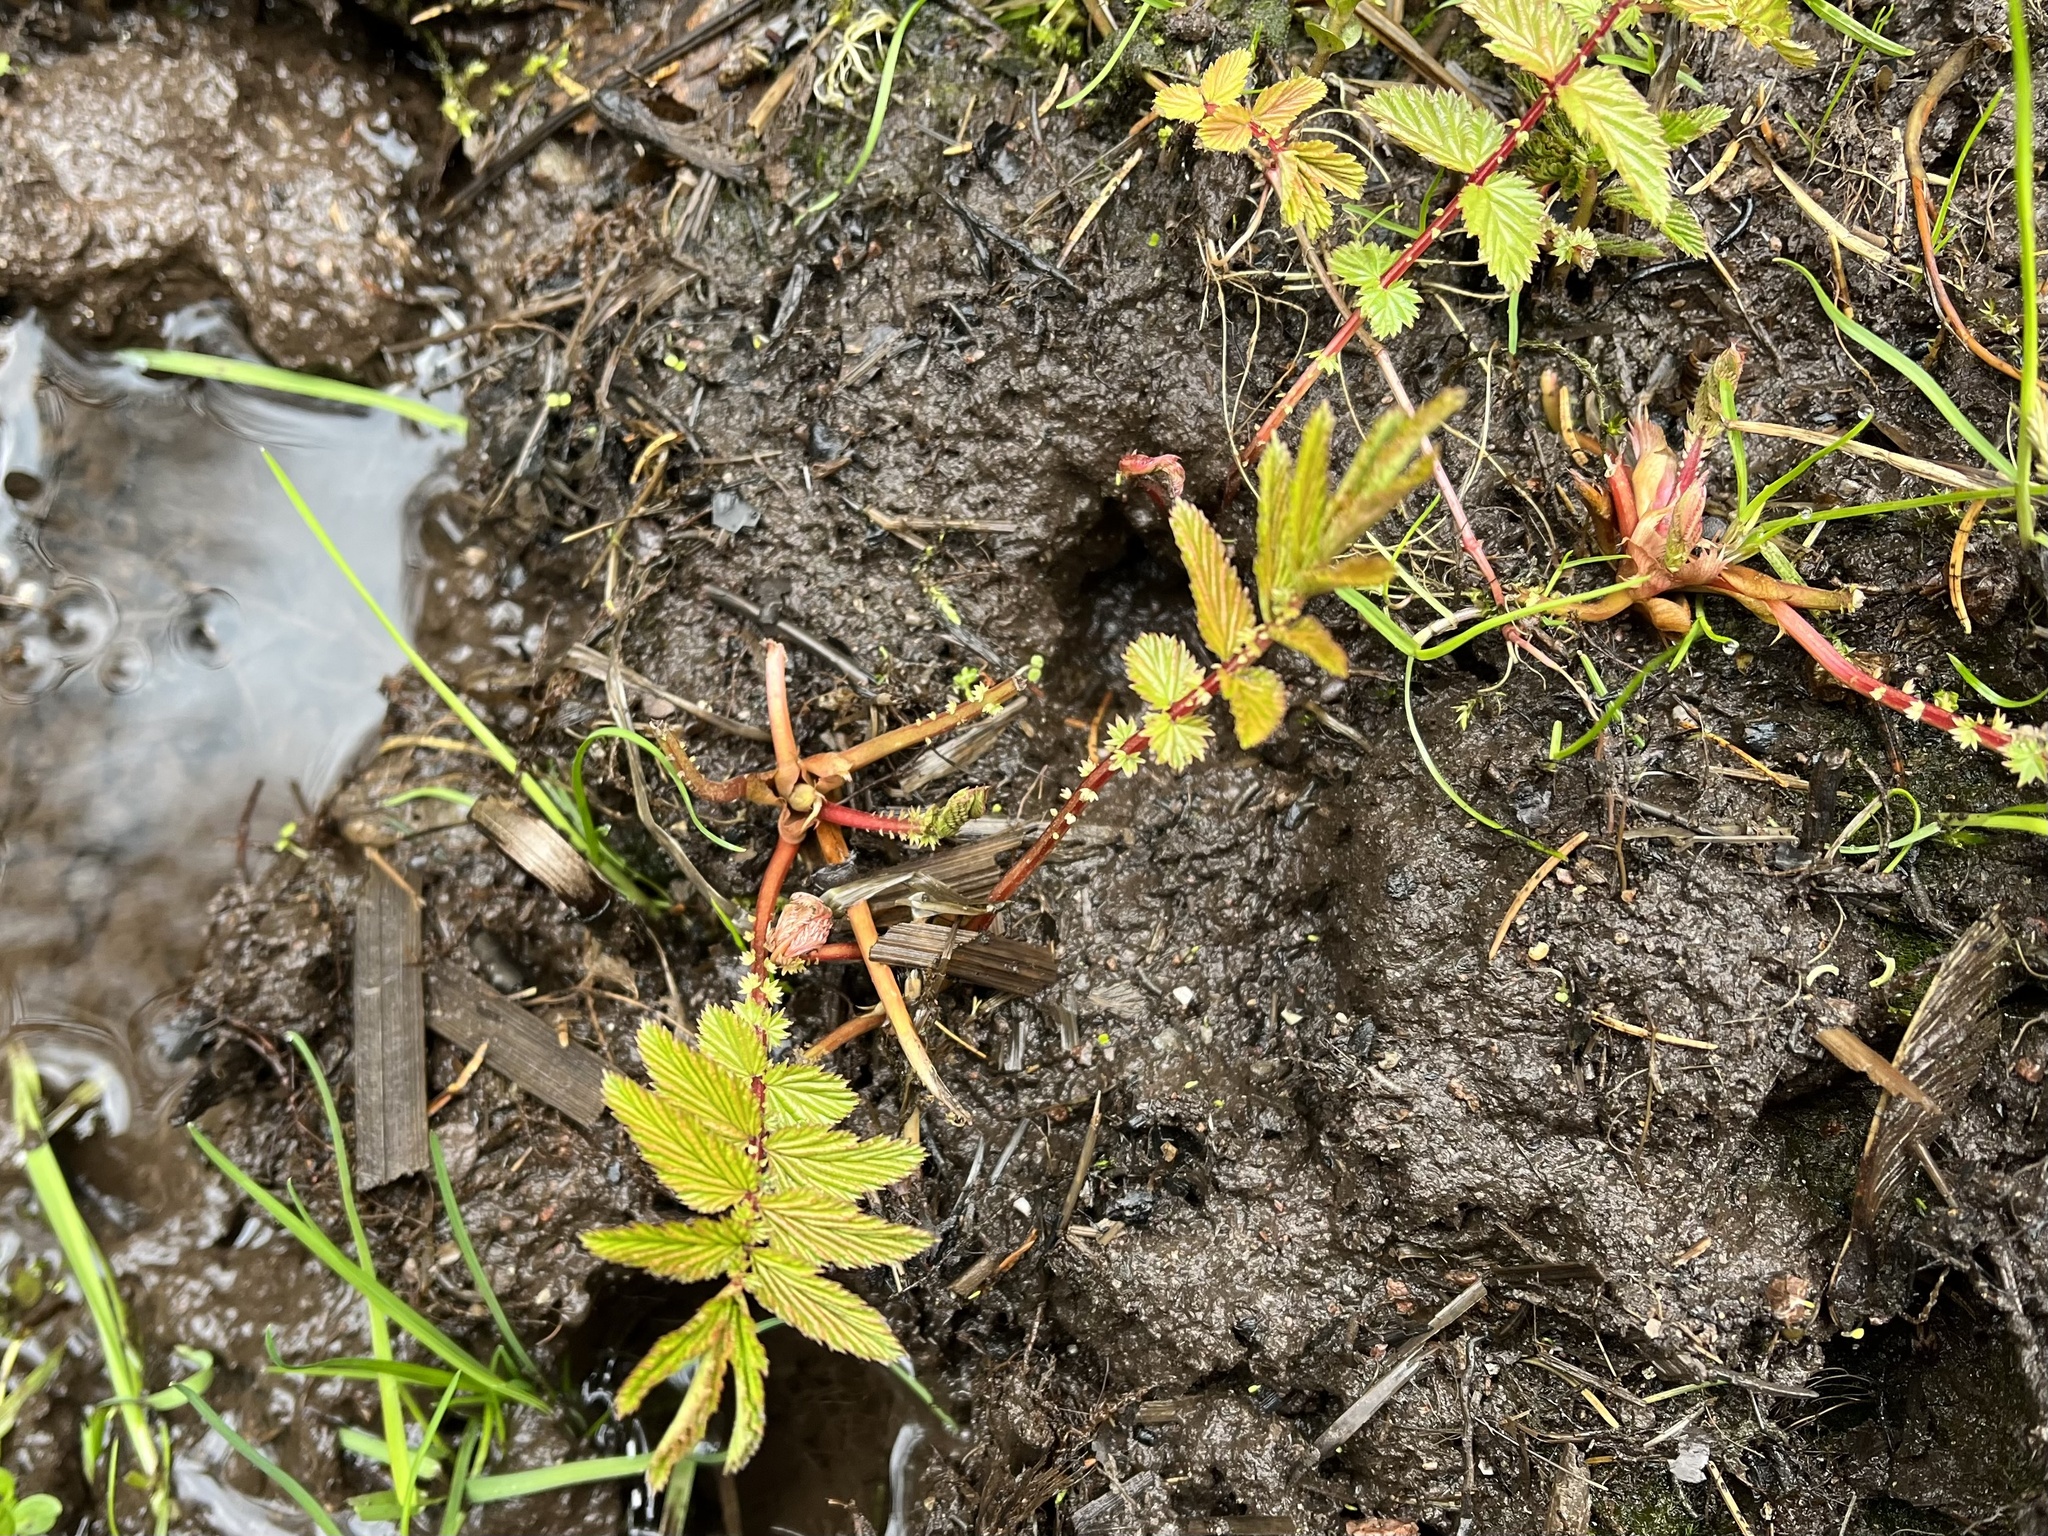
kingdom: Plantae
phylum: Tracheophyta
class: Magnoliopsida
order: Rosales
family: Rosaceae
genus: Filipendula
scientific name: Filipendula ulmaria
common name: Meadowsweet
